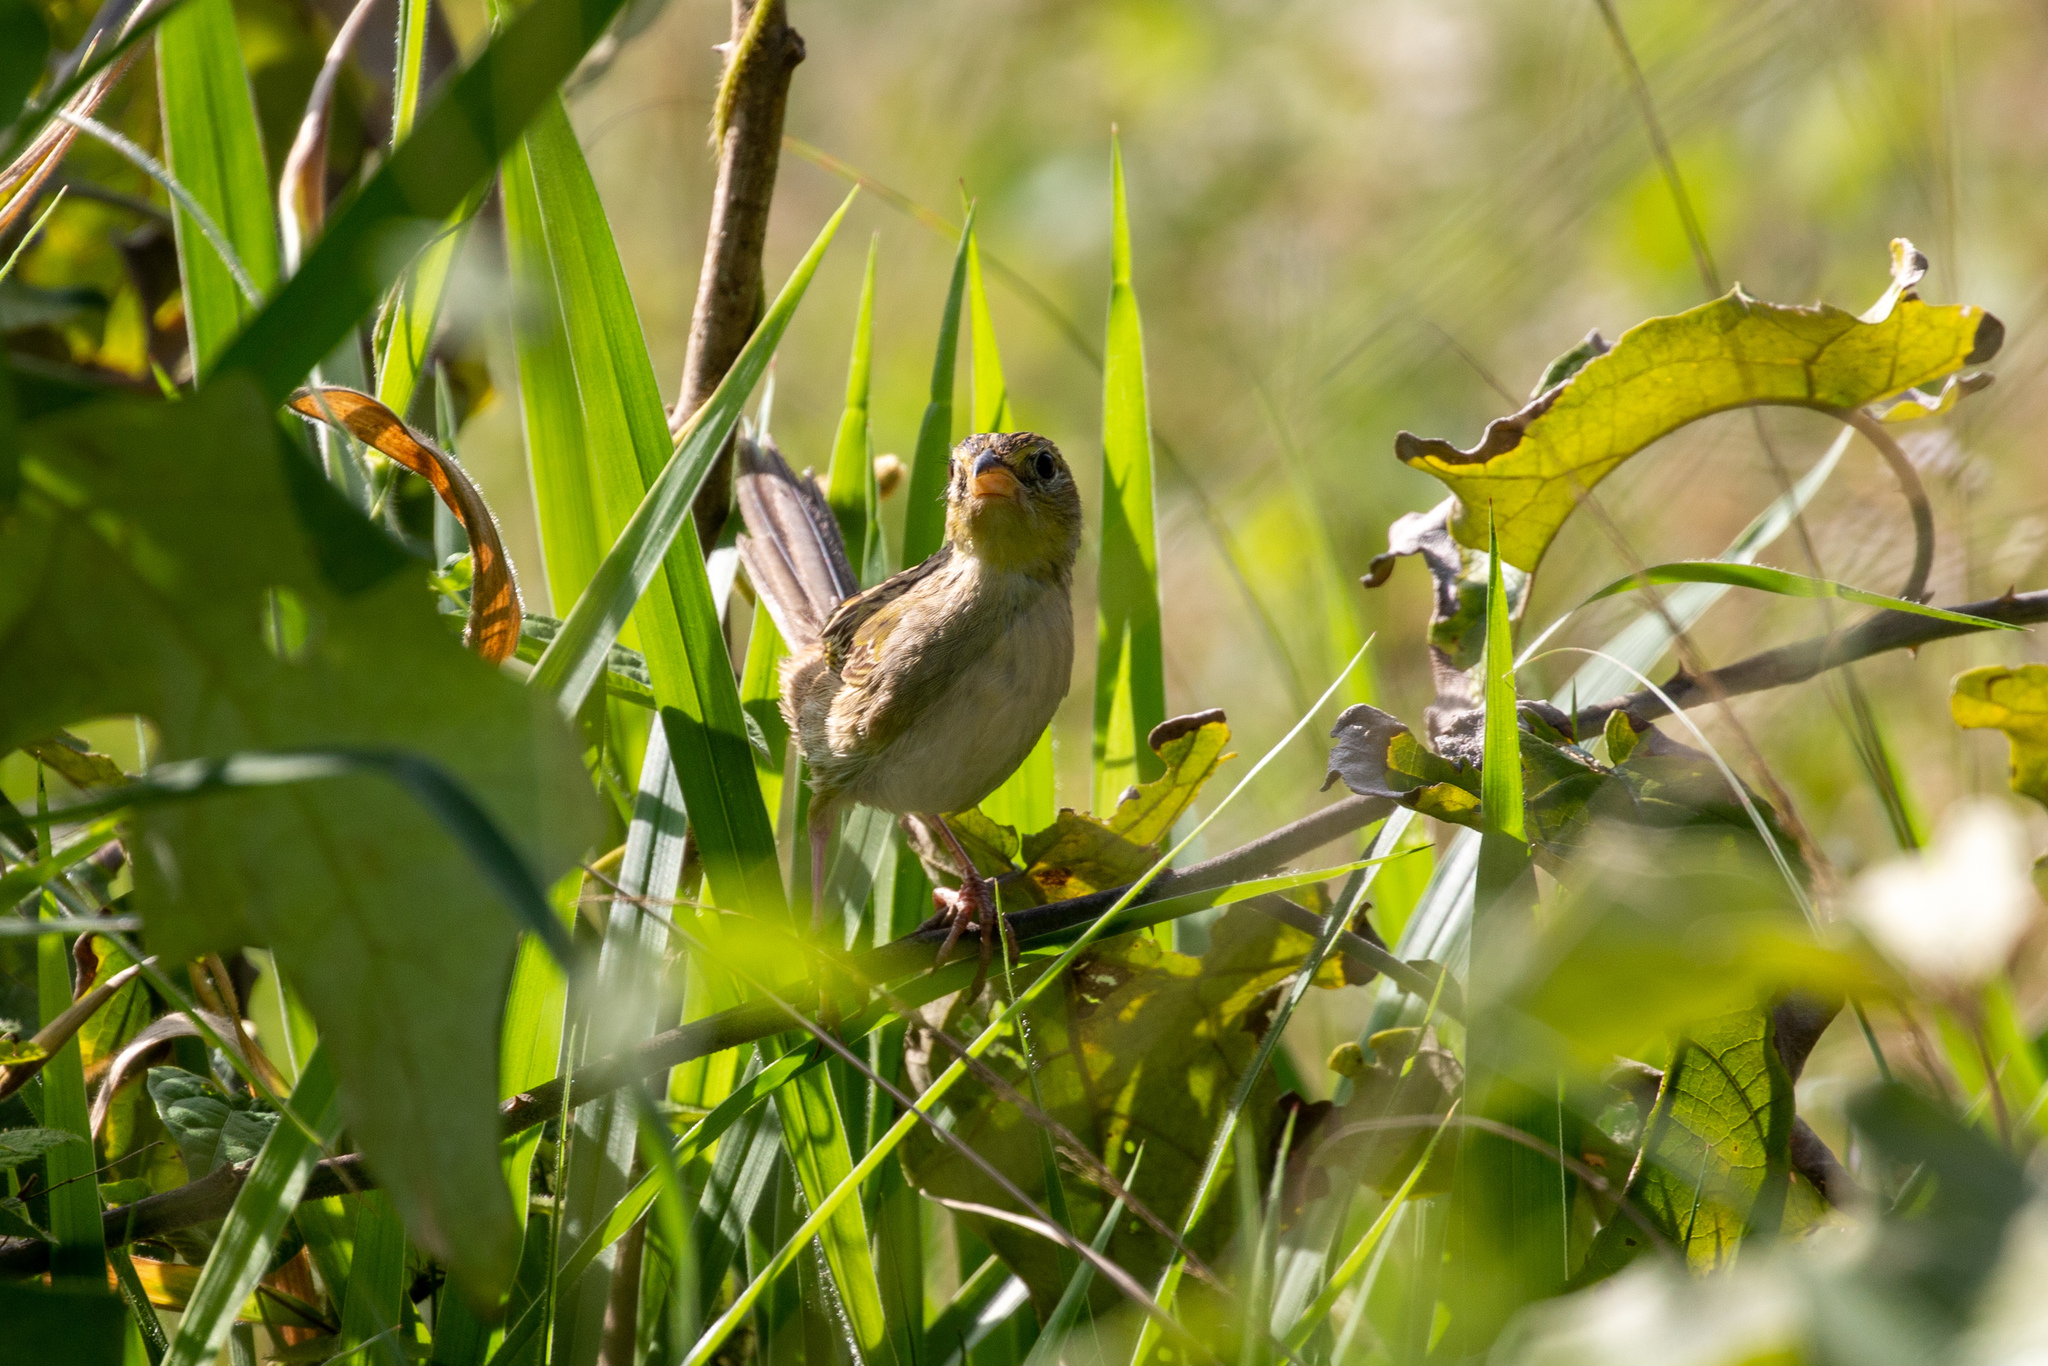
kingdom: Animalia
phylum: Chordata
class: Aves
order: Passeriformes
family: Thraupidae
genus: Emberizoides
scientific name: Emberizoides herbicola
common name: Wedge-tailed grass-finch
